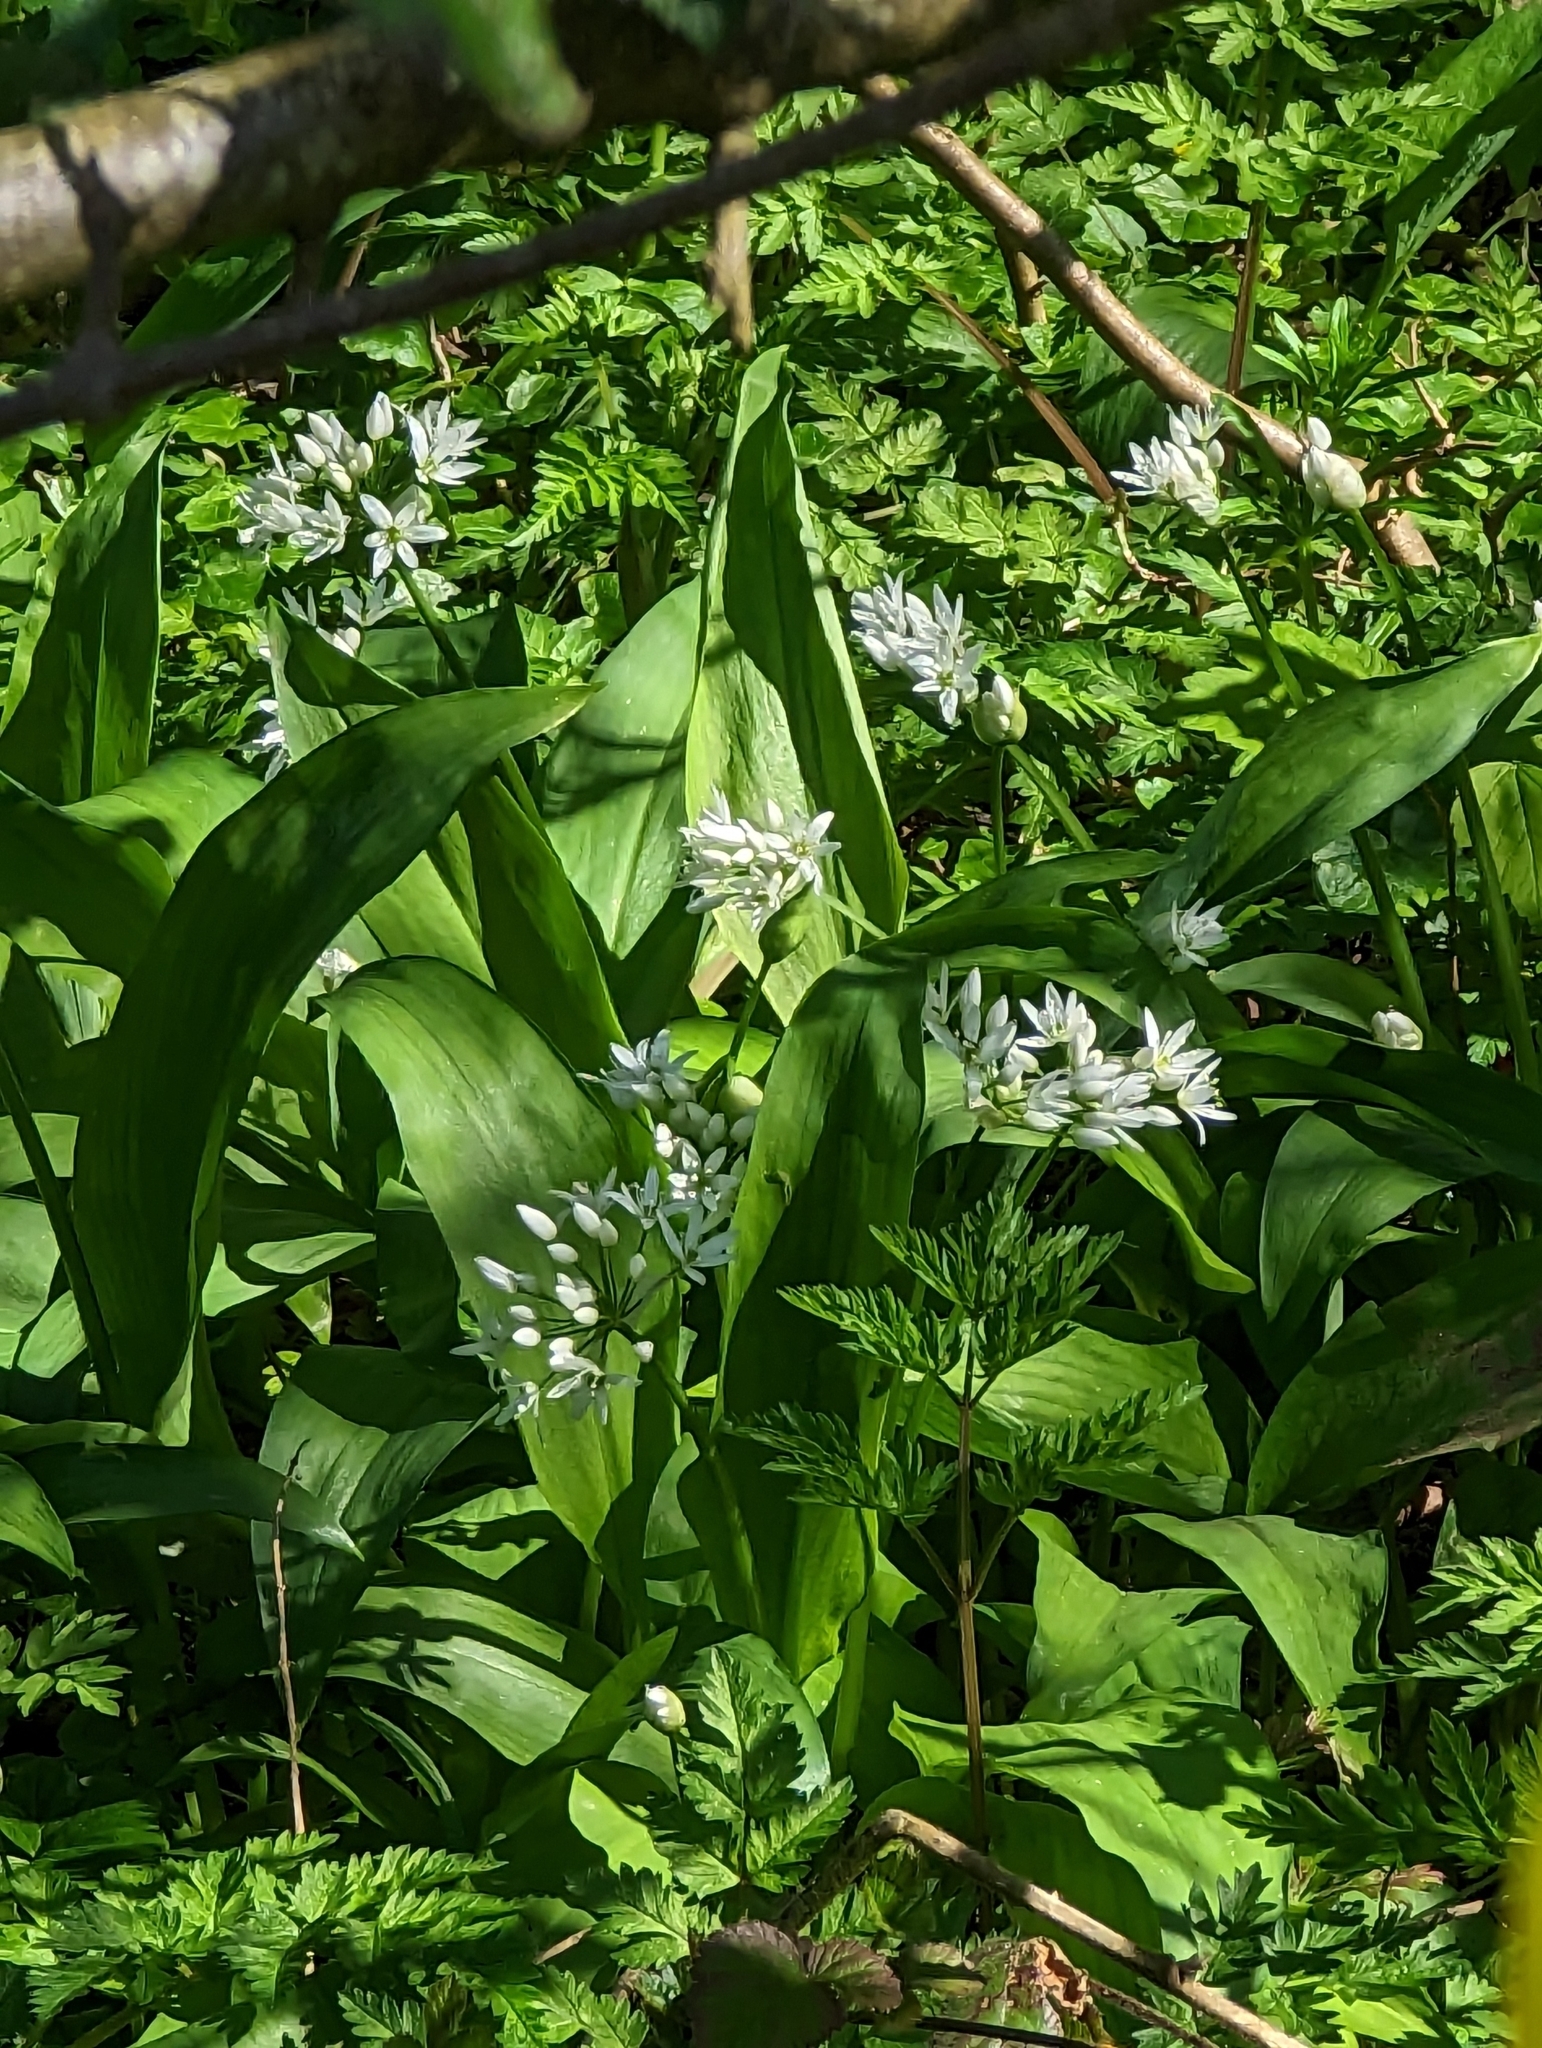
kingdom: Plantae
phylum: Tracheophyta
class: Liliopsida
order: Asparagales
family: Amaryllidaceae
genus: Allium
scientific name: Allium ursinum
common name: Ramsons
